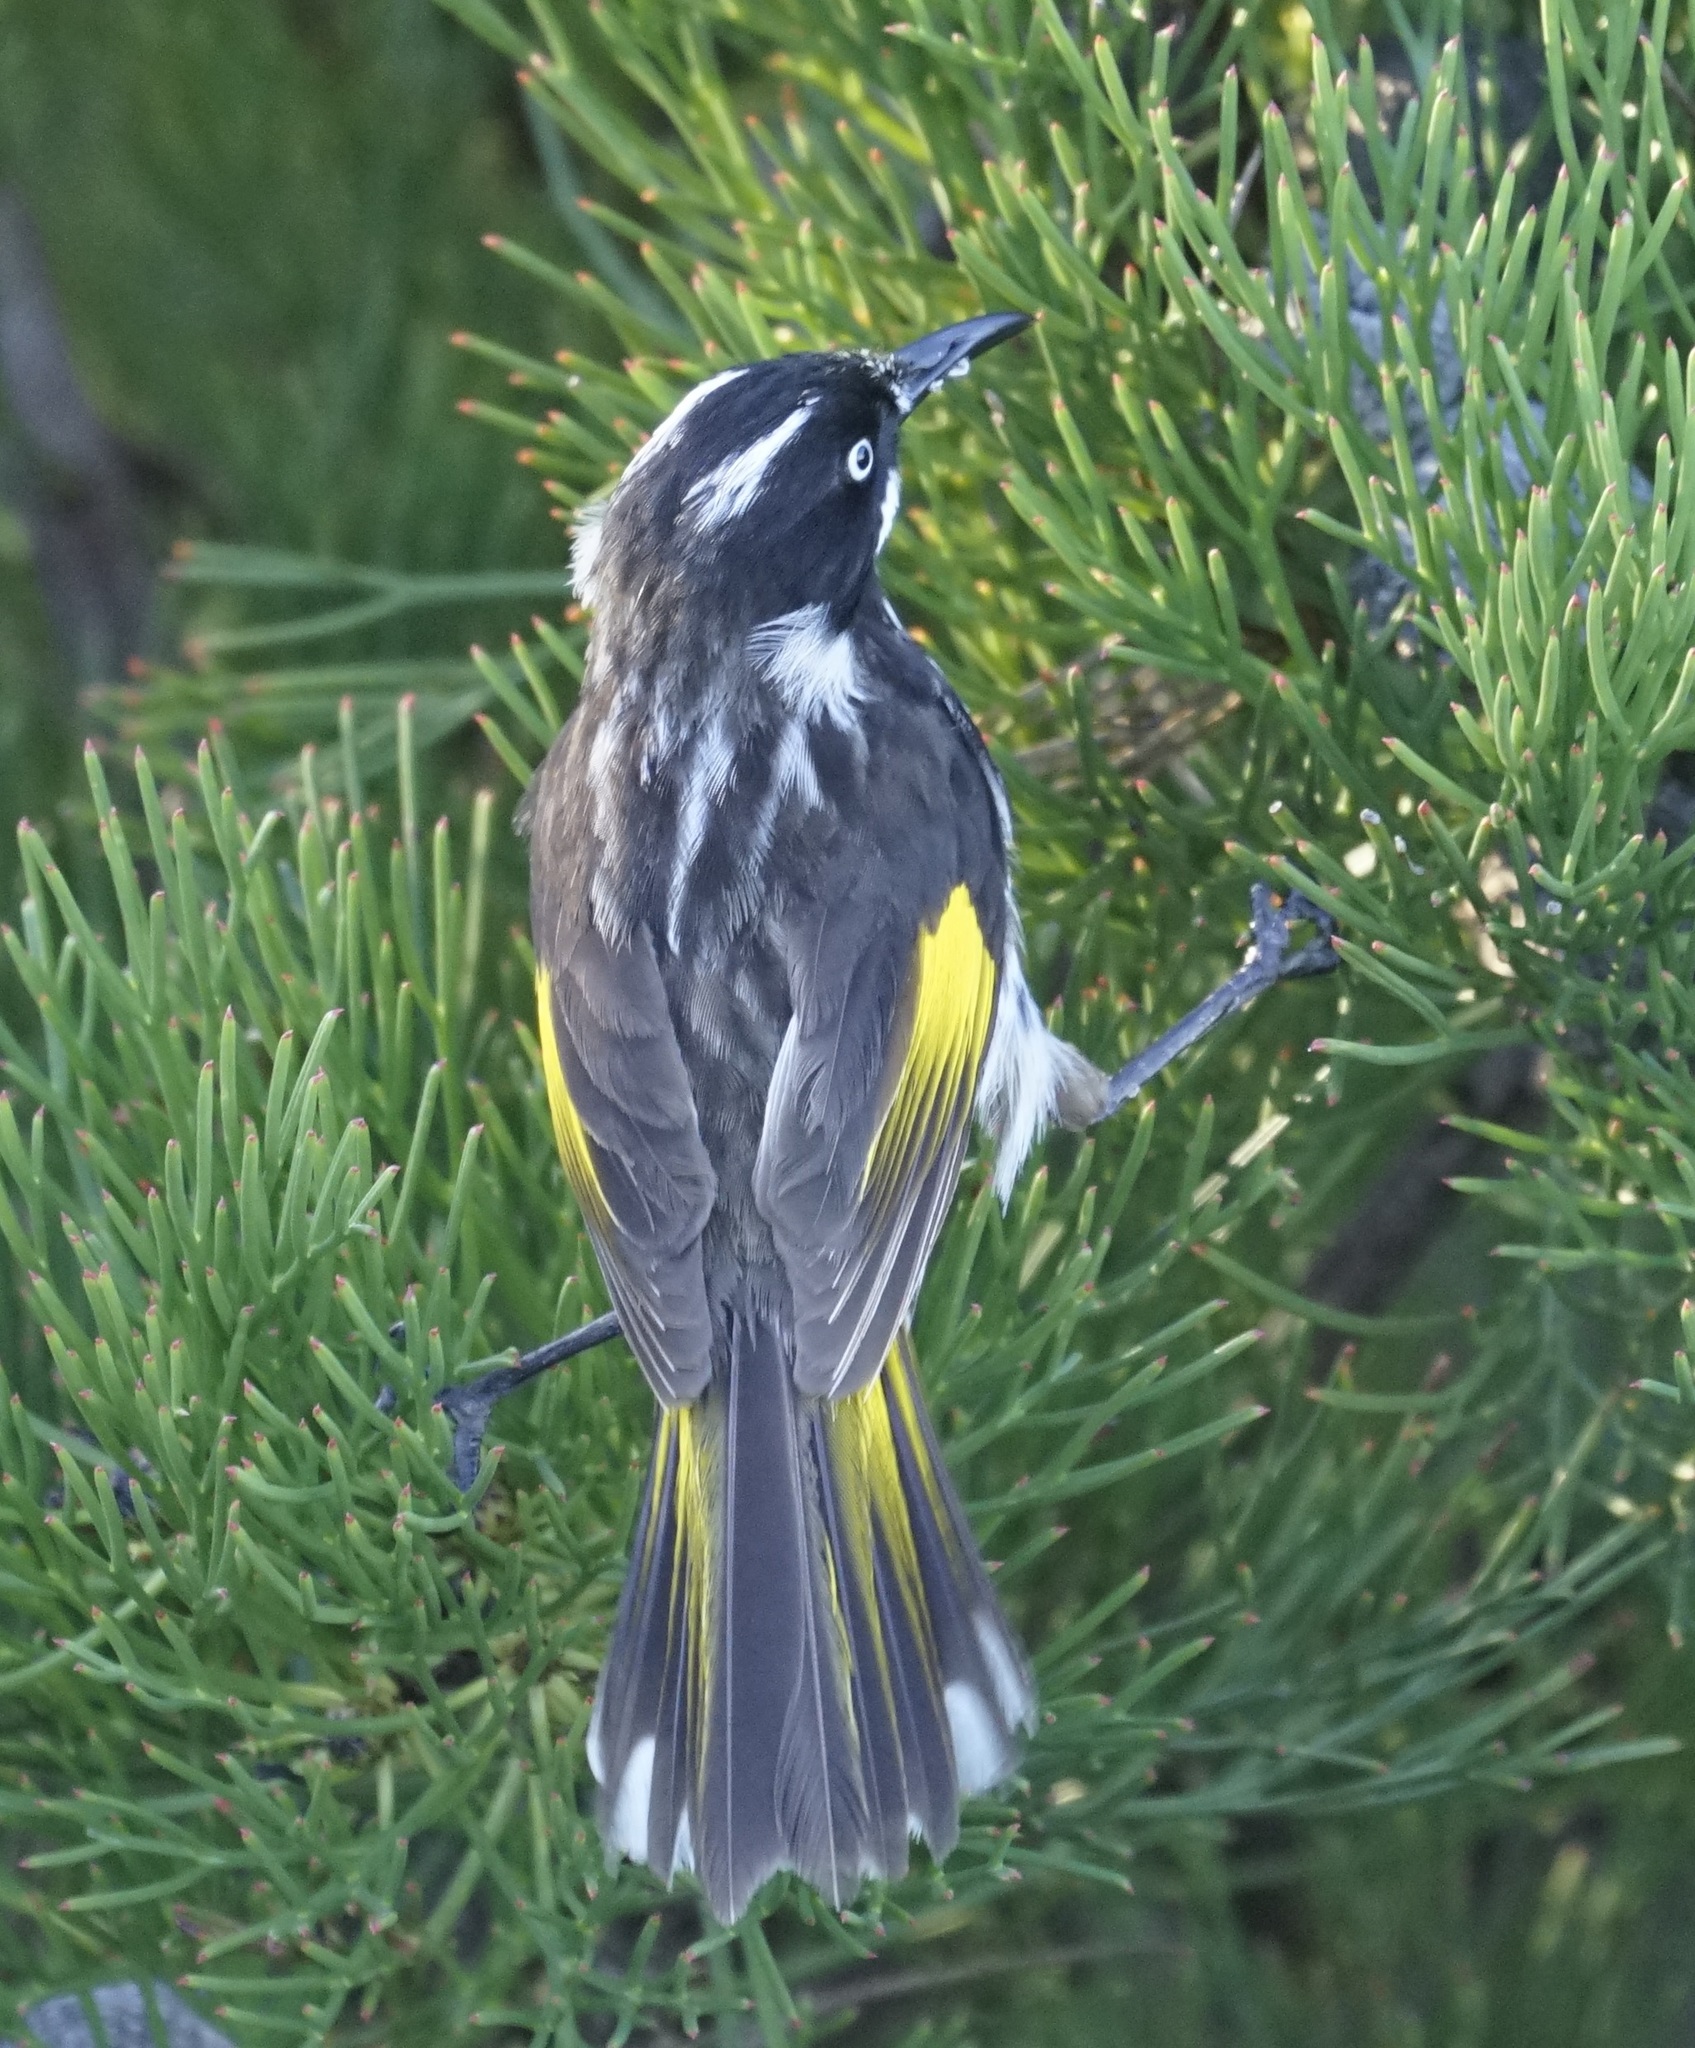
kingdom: Animalia
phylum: Chordata
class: Aves
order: Passeriformes
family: Meliphagidae
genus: Phylidonyris
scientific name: Phylidonyris novaehollandiae
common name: New holland honeyeater
